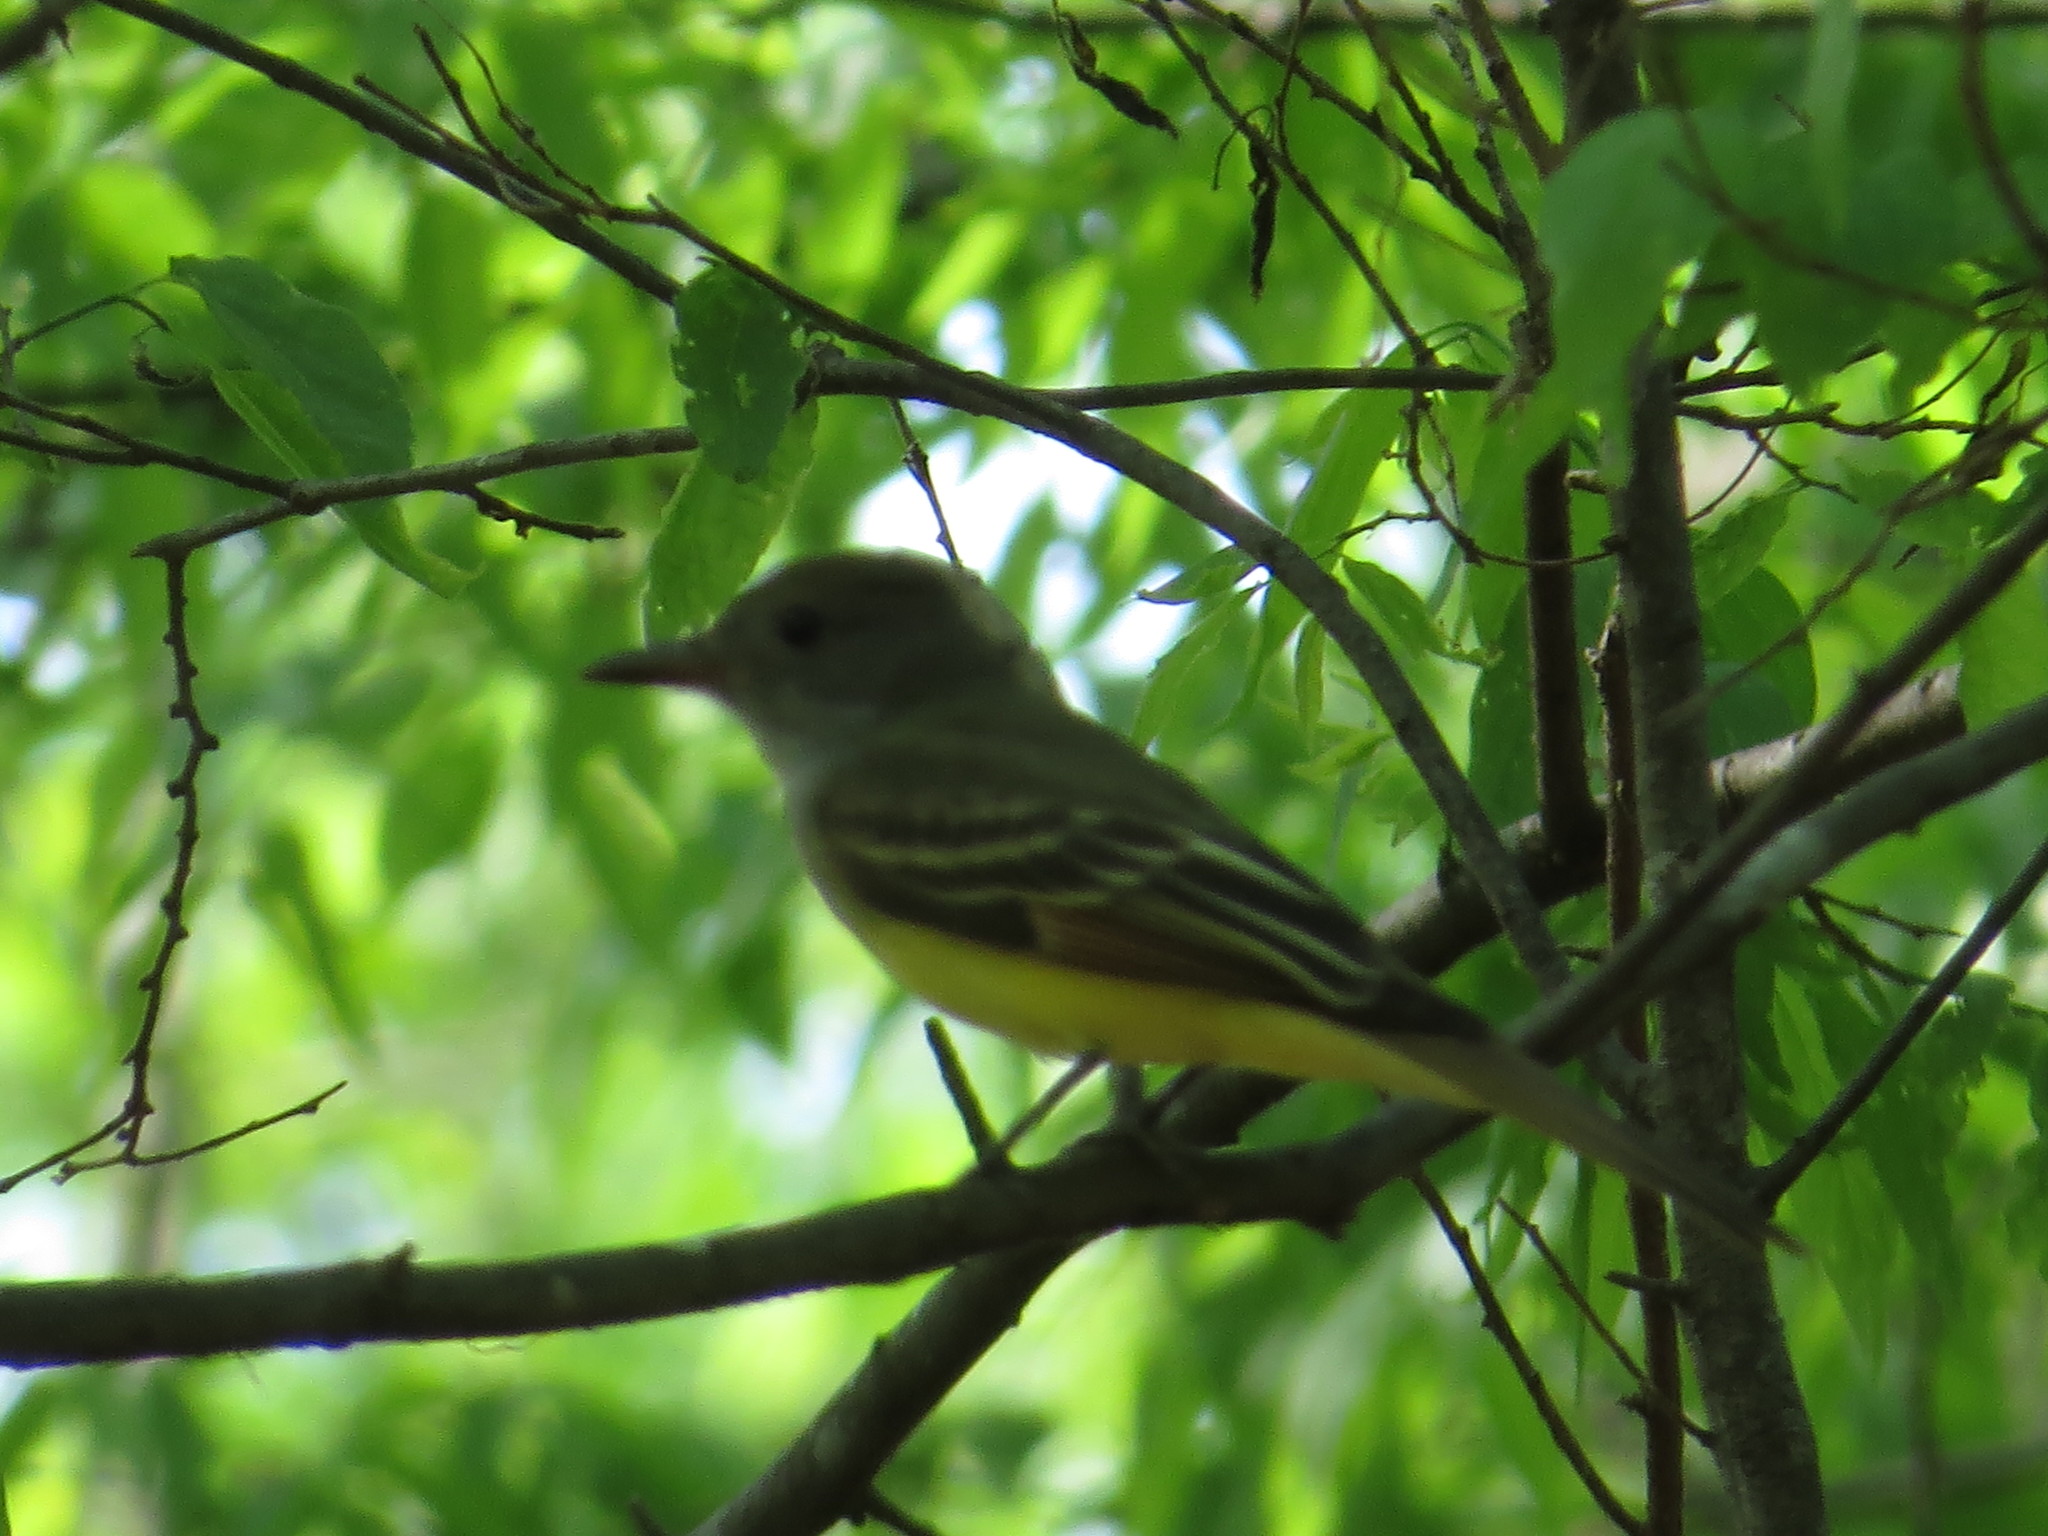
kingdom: Animalia
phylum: Chordata
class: Aves
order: Passeriformes
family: Tyrannidae
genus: Myiarchus
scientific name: Myiarchus crinitus
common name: Great crested flycatcher
